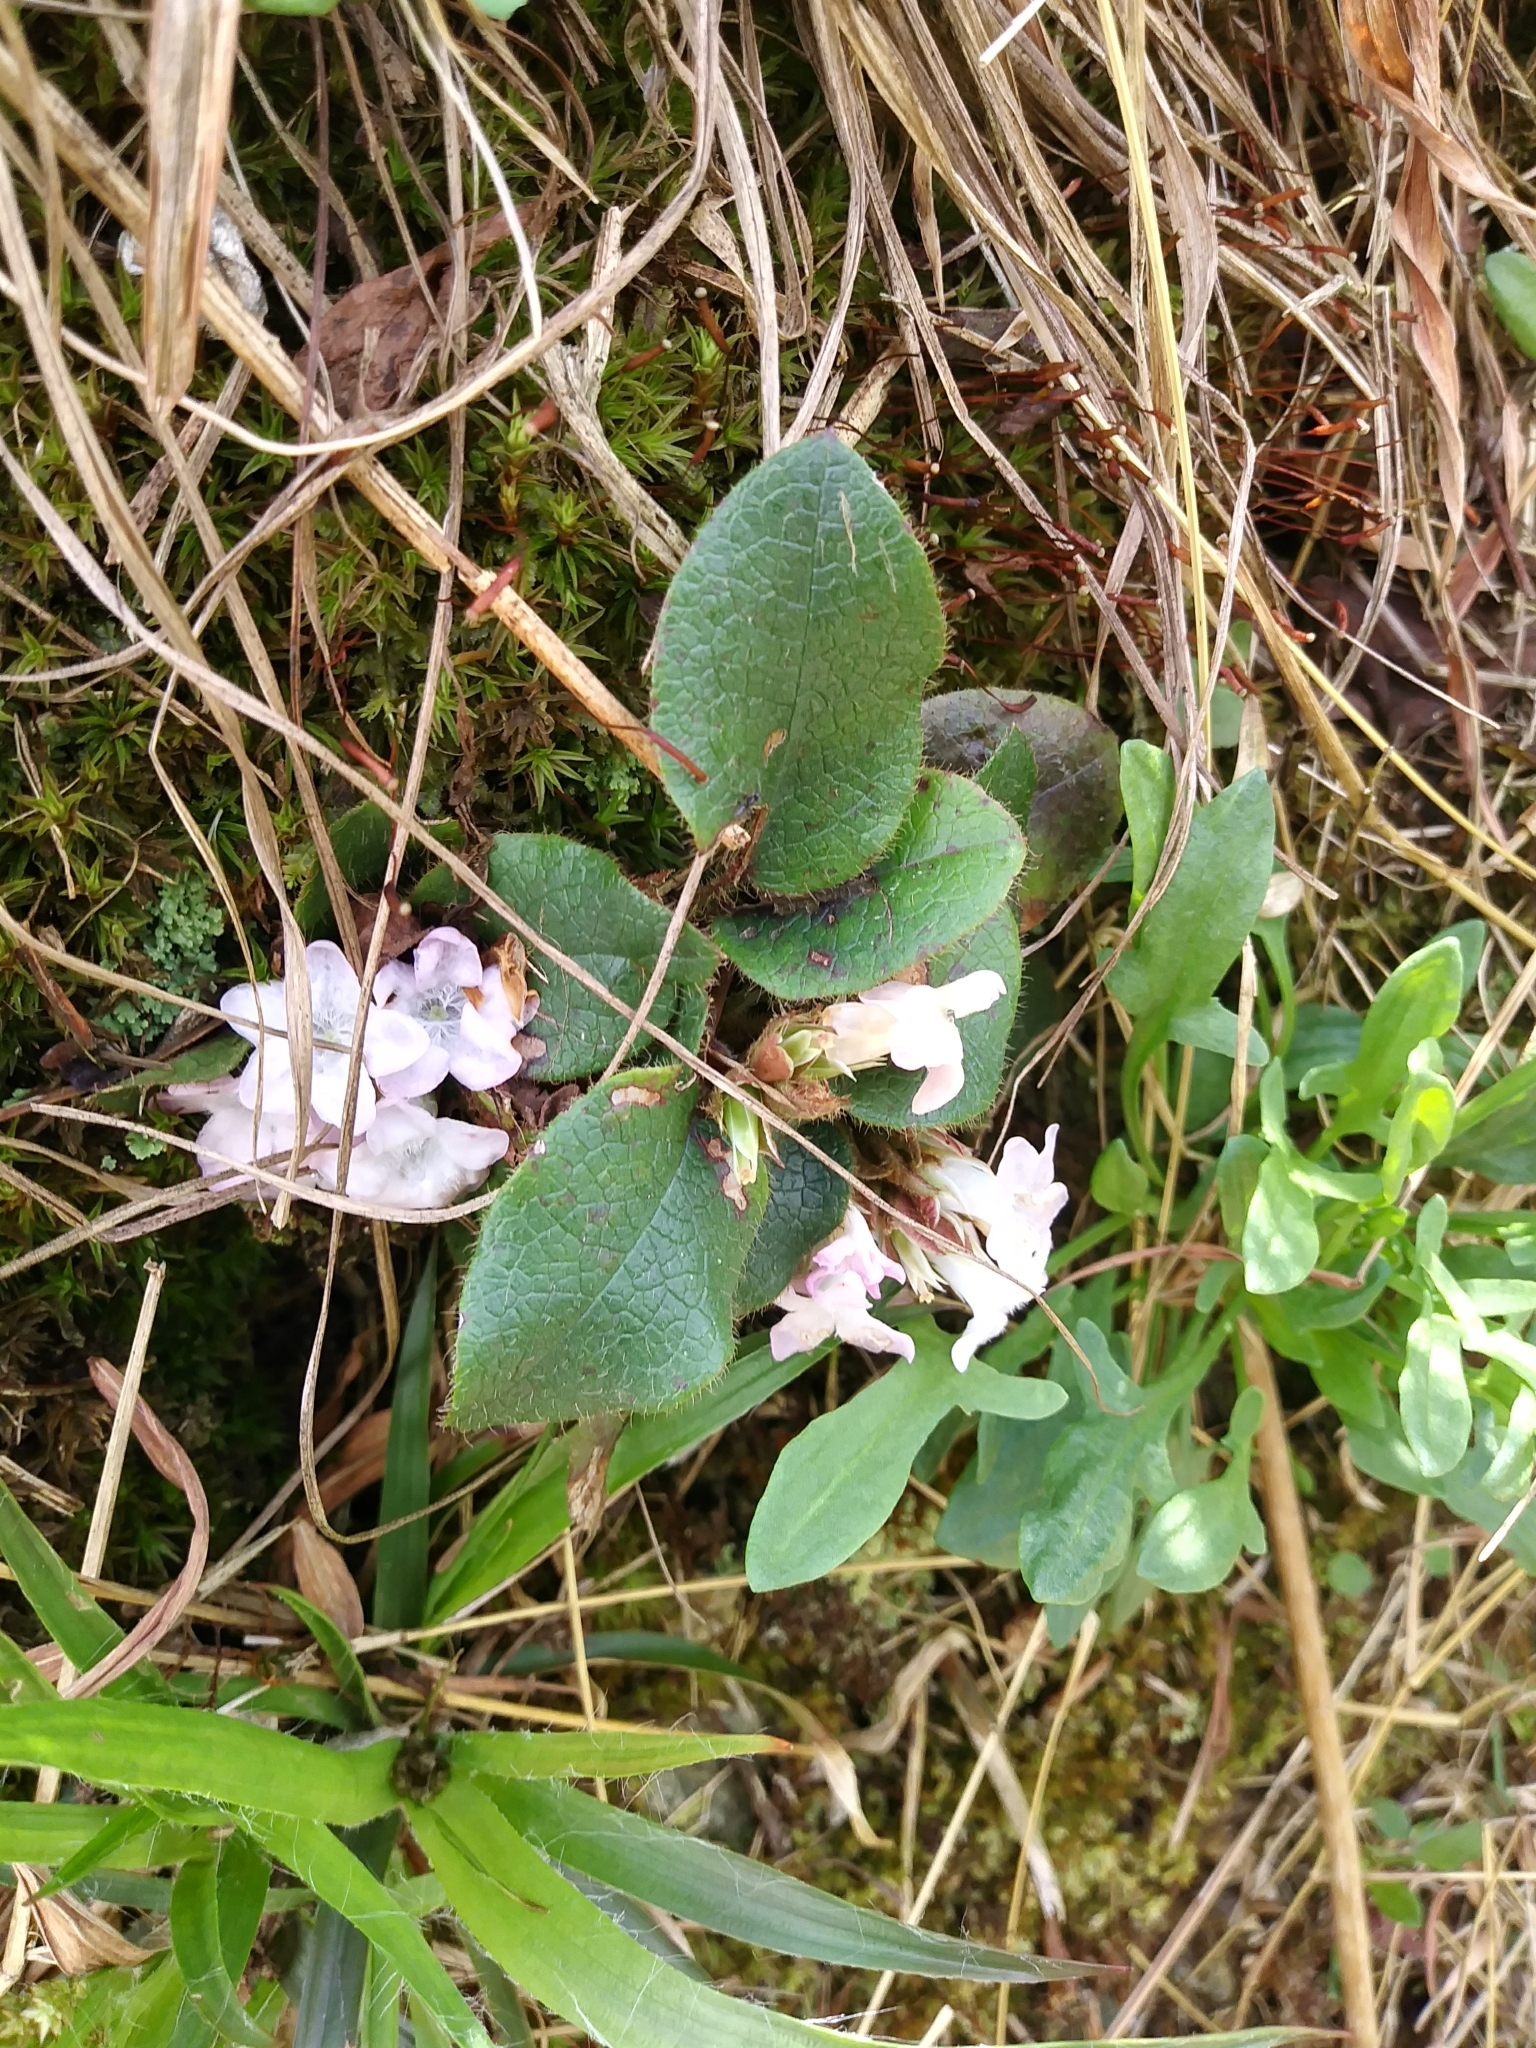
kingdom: Plantae
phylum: Tracheophyta
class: Magnoliopsida
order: Ericales
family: Ericaceae
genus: Epigaea
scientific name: Epigaea repens
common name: Gravelroot
